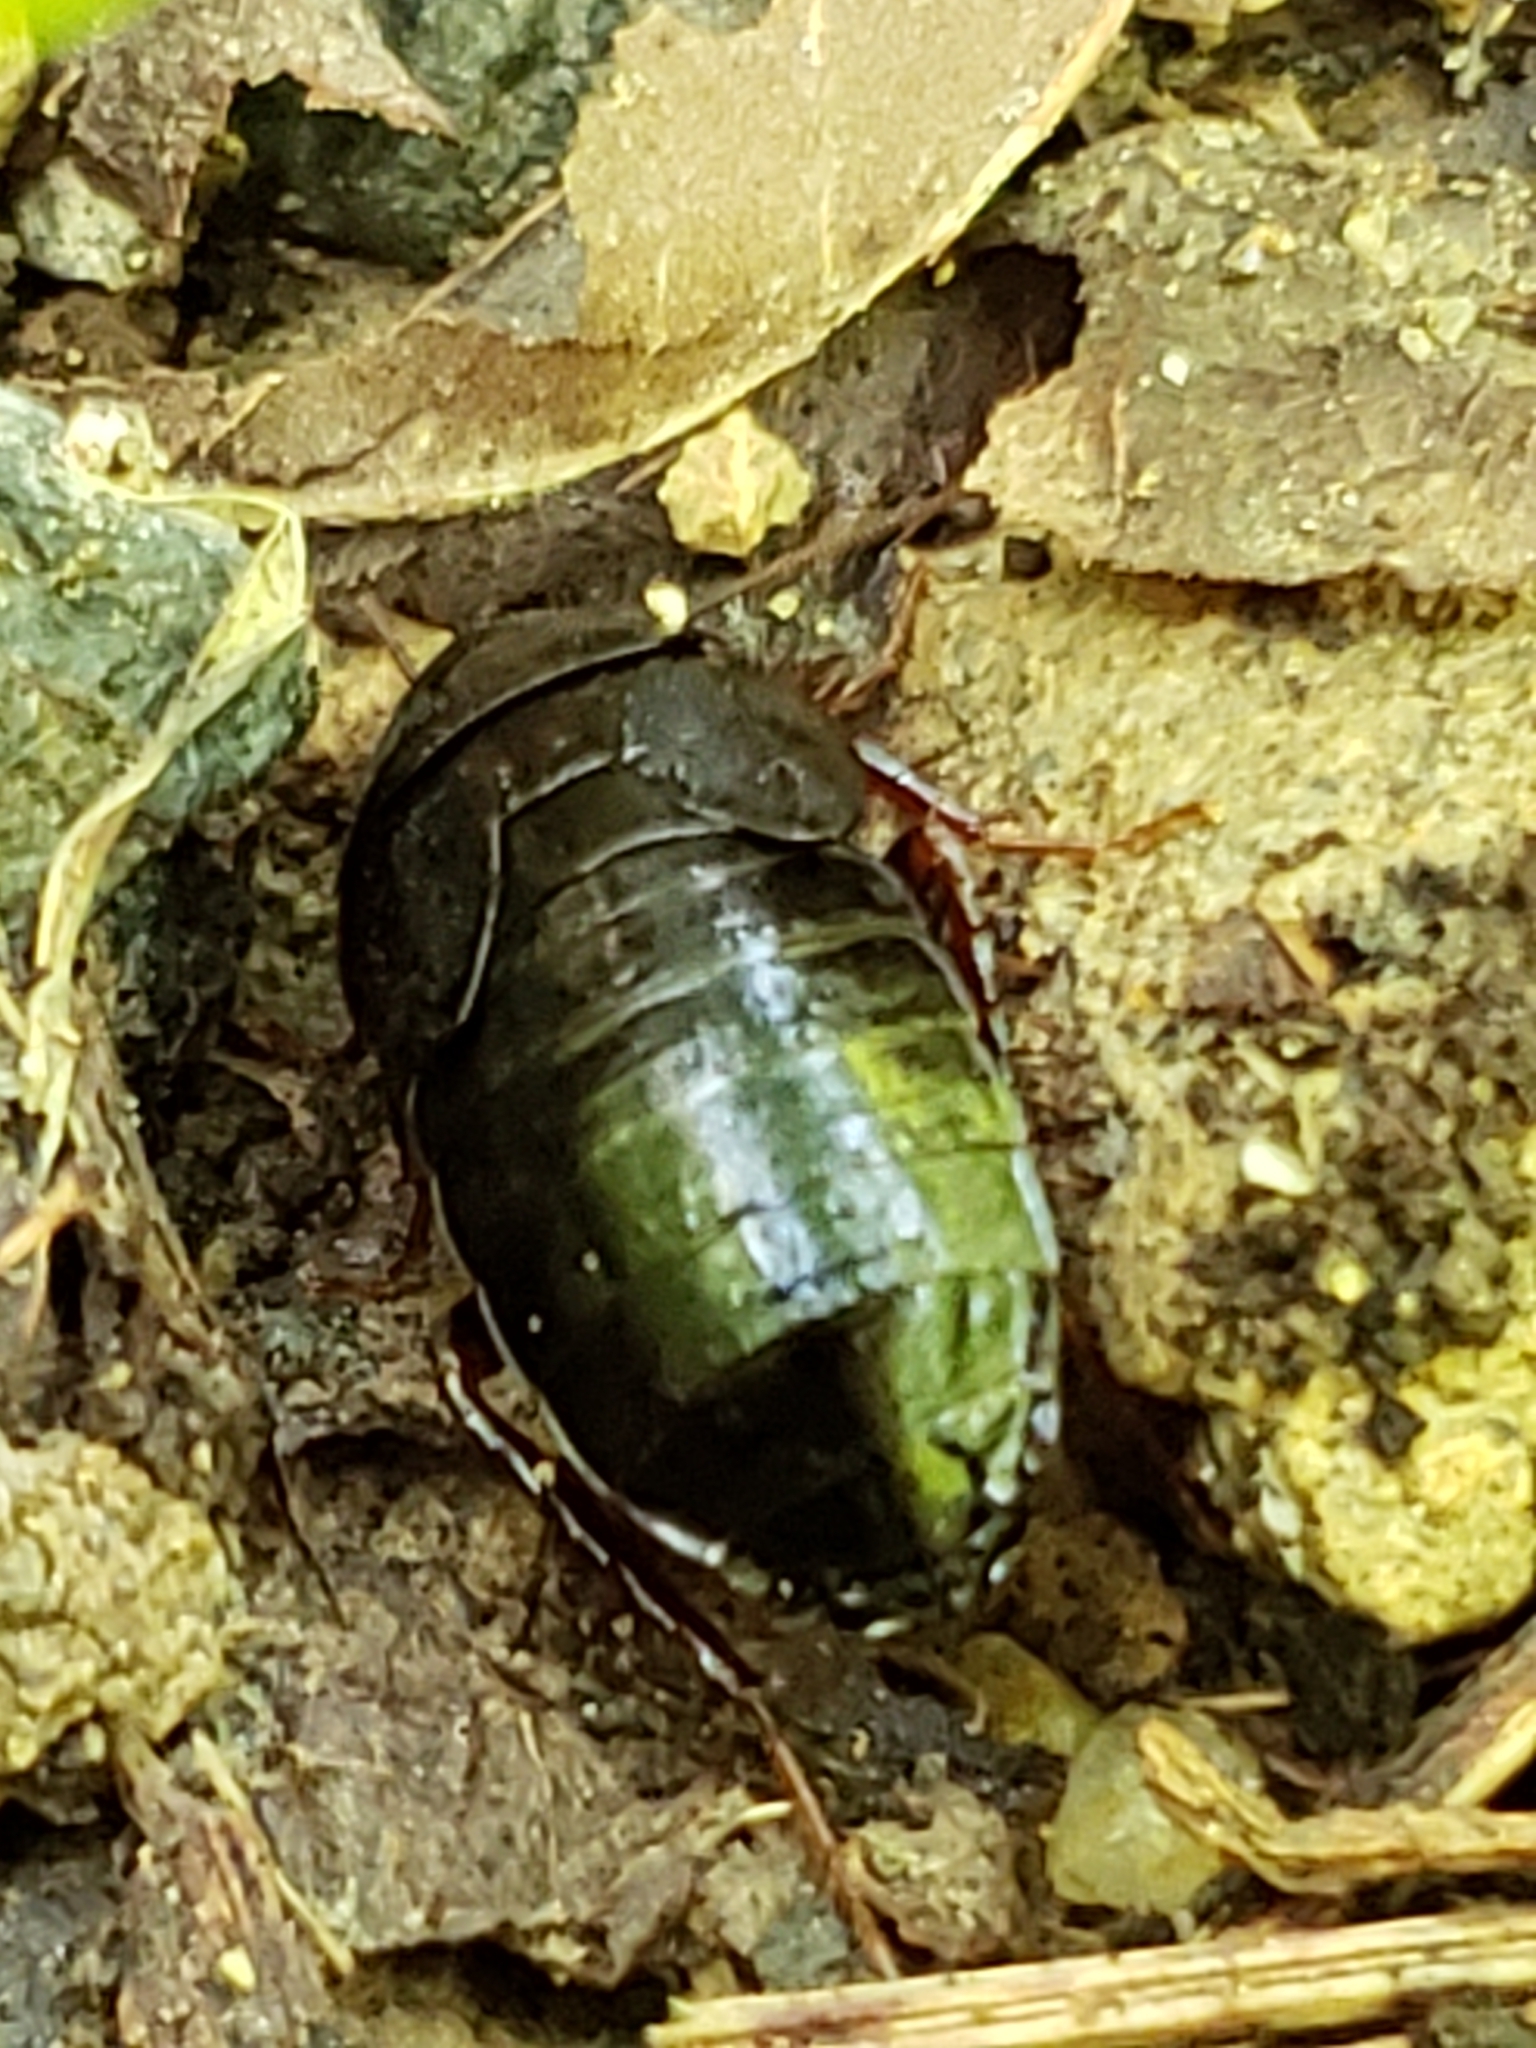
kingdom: Animalia
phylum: Arthropoda
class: Insecta
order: Blattodea
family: Ectobiidae
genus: Parcoblatta
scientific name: Parcoblatta uhleriana
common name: Uhler's wood cockroach
